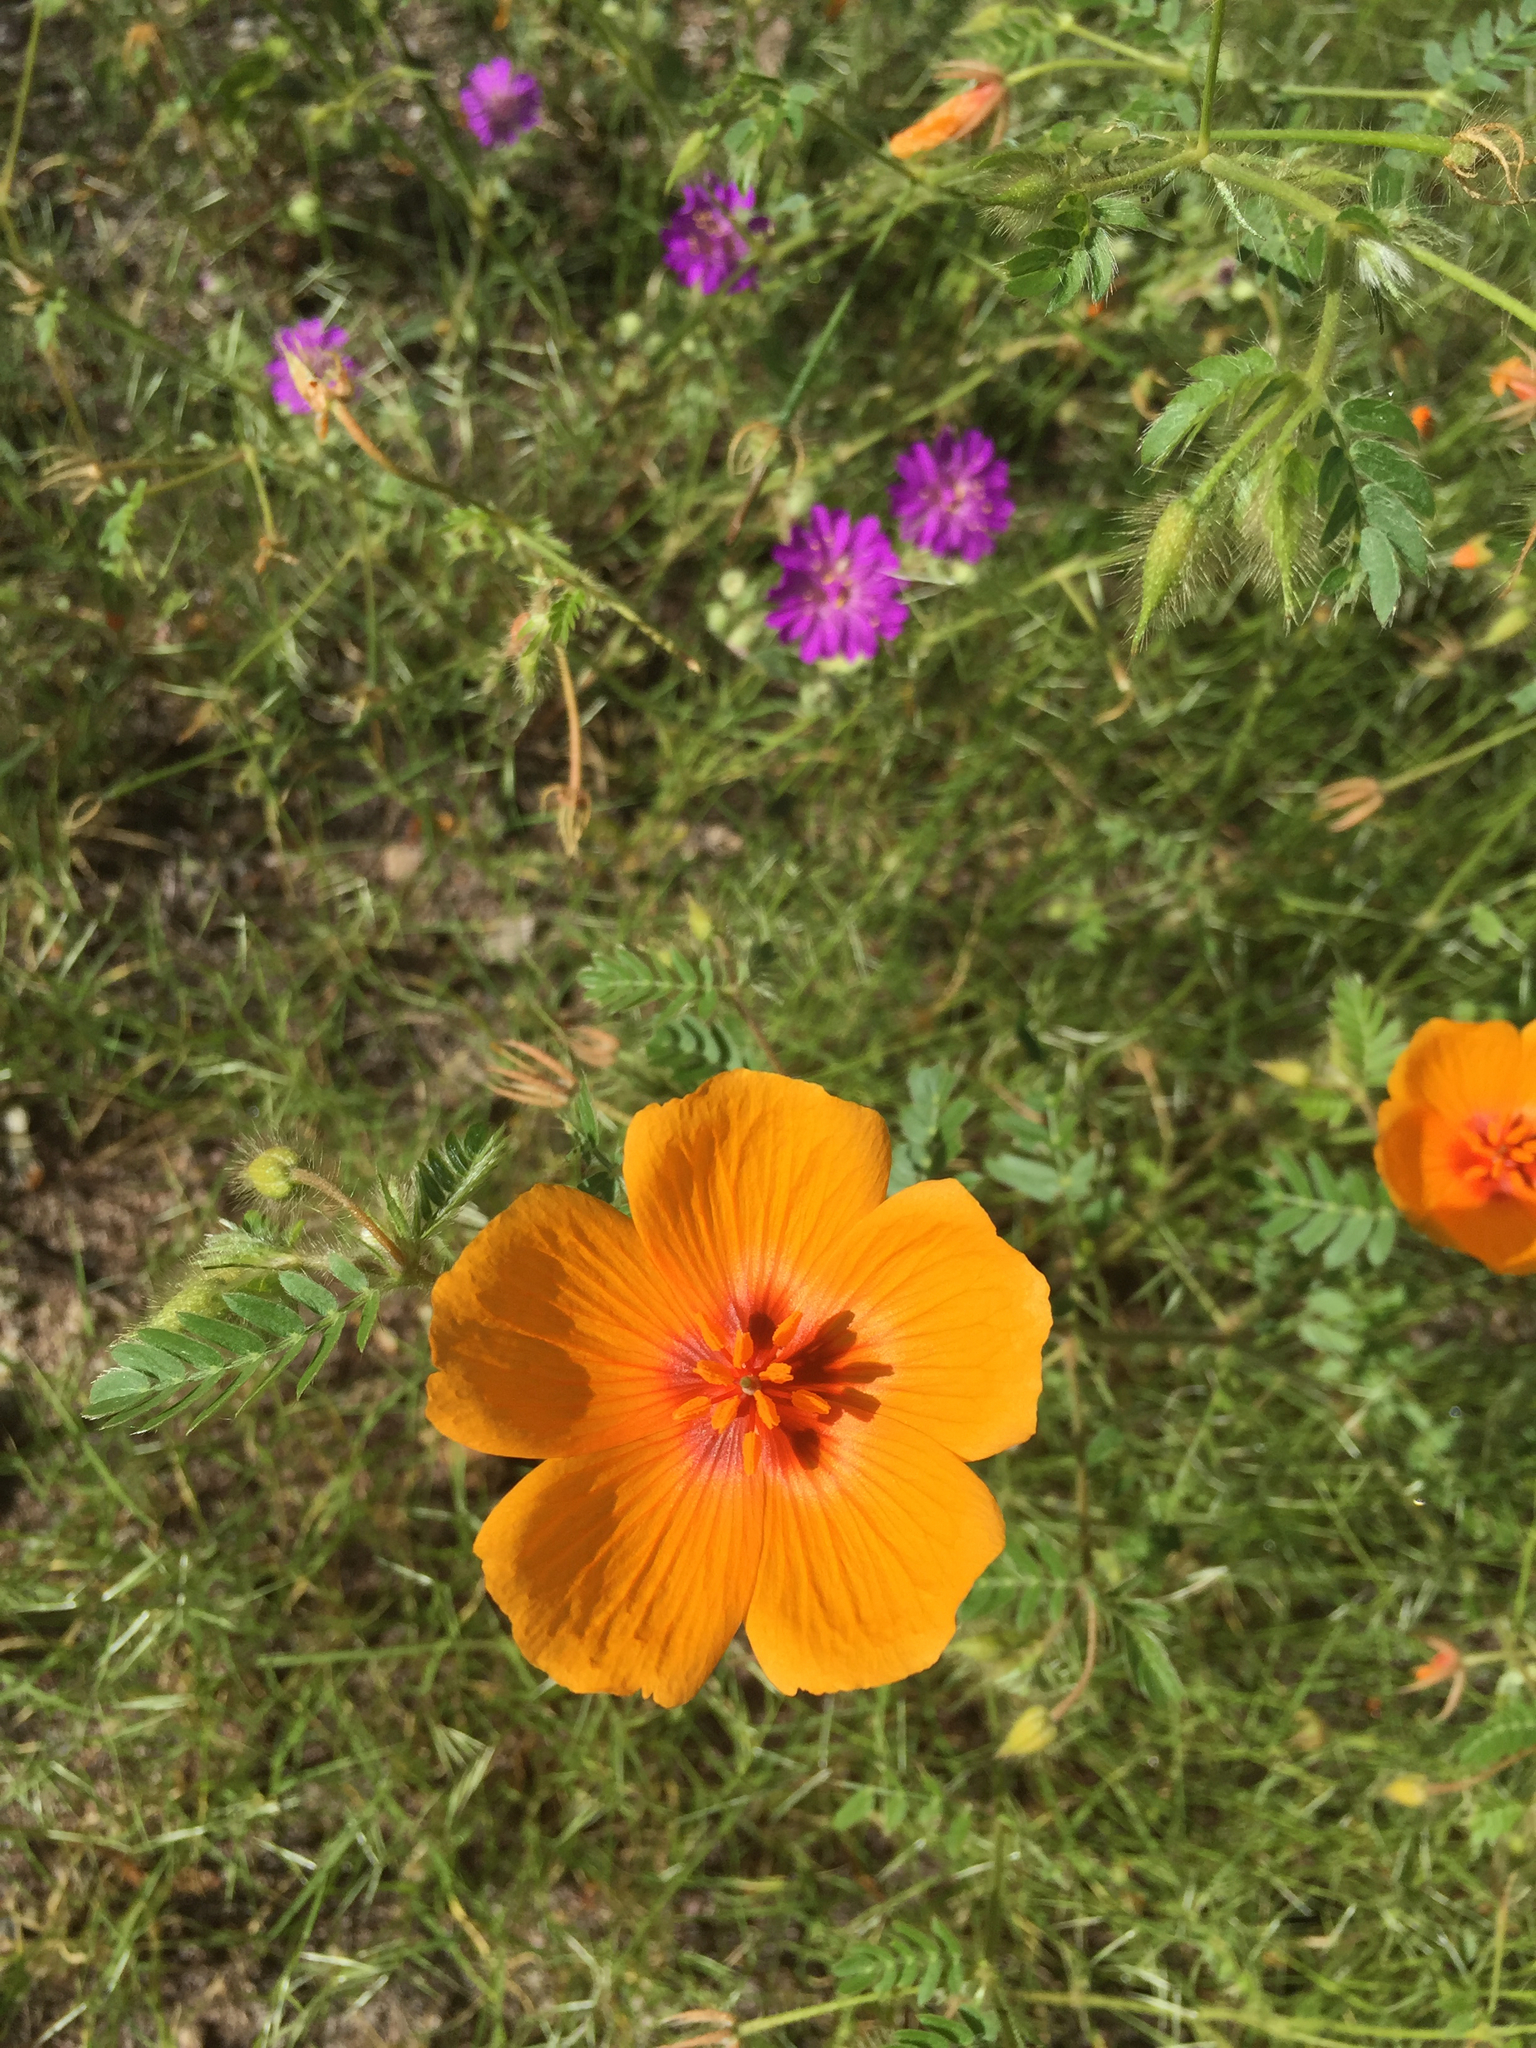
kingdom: Plantae
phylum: Tracheophyta
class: Magnoliopsida
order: Zygophyllales
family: Zygophyllaceae
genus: Kallstroemia
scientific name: Kallstroemia grandiflora
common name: Arizona-poppy
